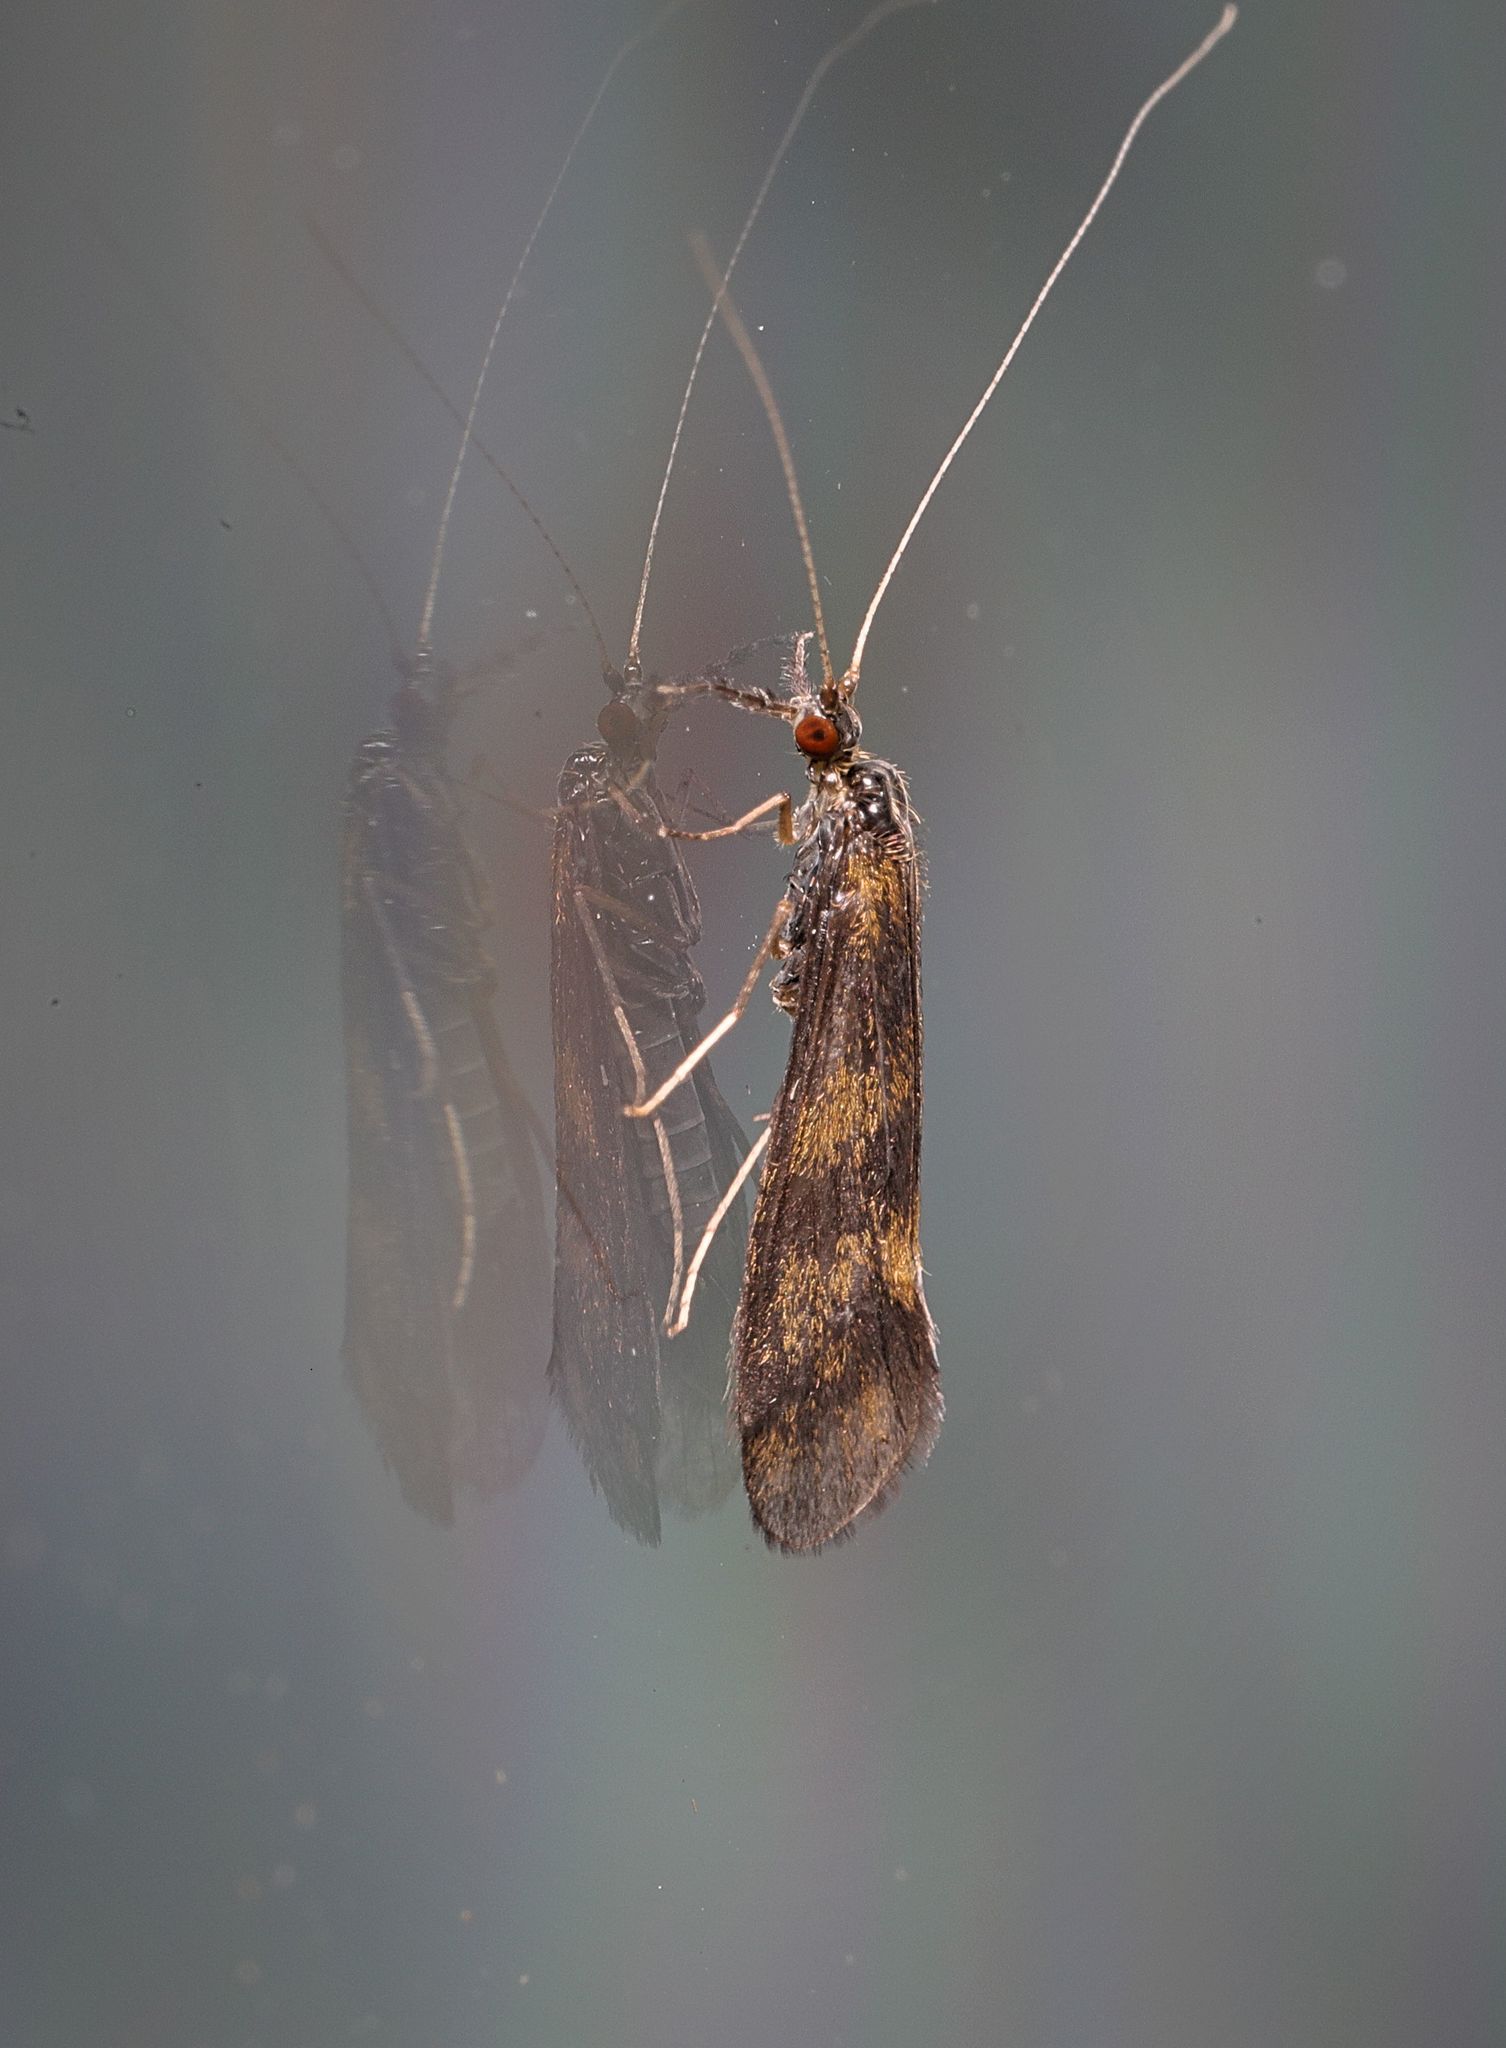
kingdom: Animalia
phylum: Arthropoda
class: Insecta
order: Trichoptera
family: Leptoceridae
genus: Mystacides
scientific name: Mystacides longicornis
